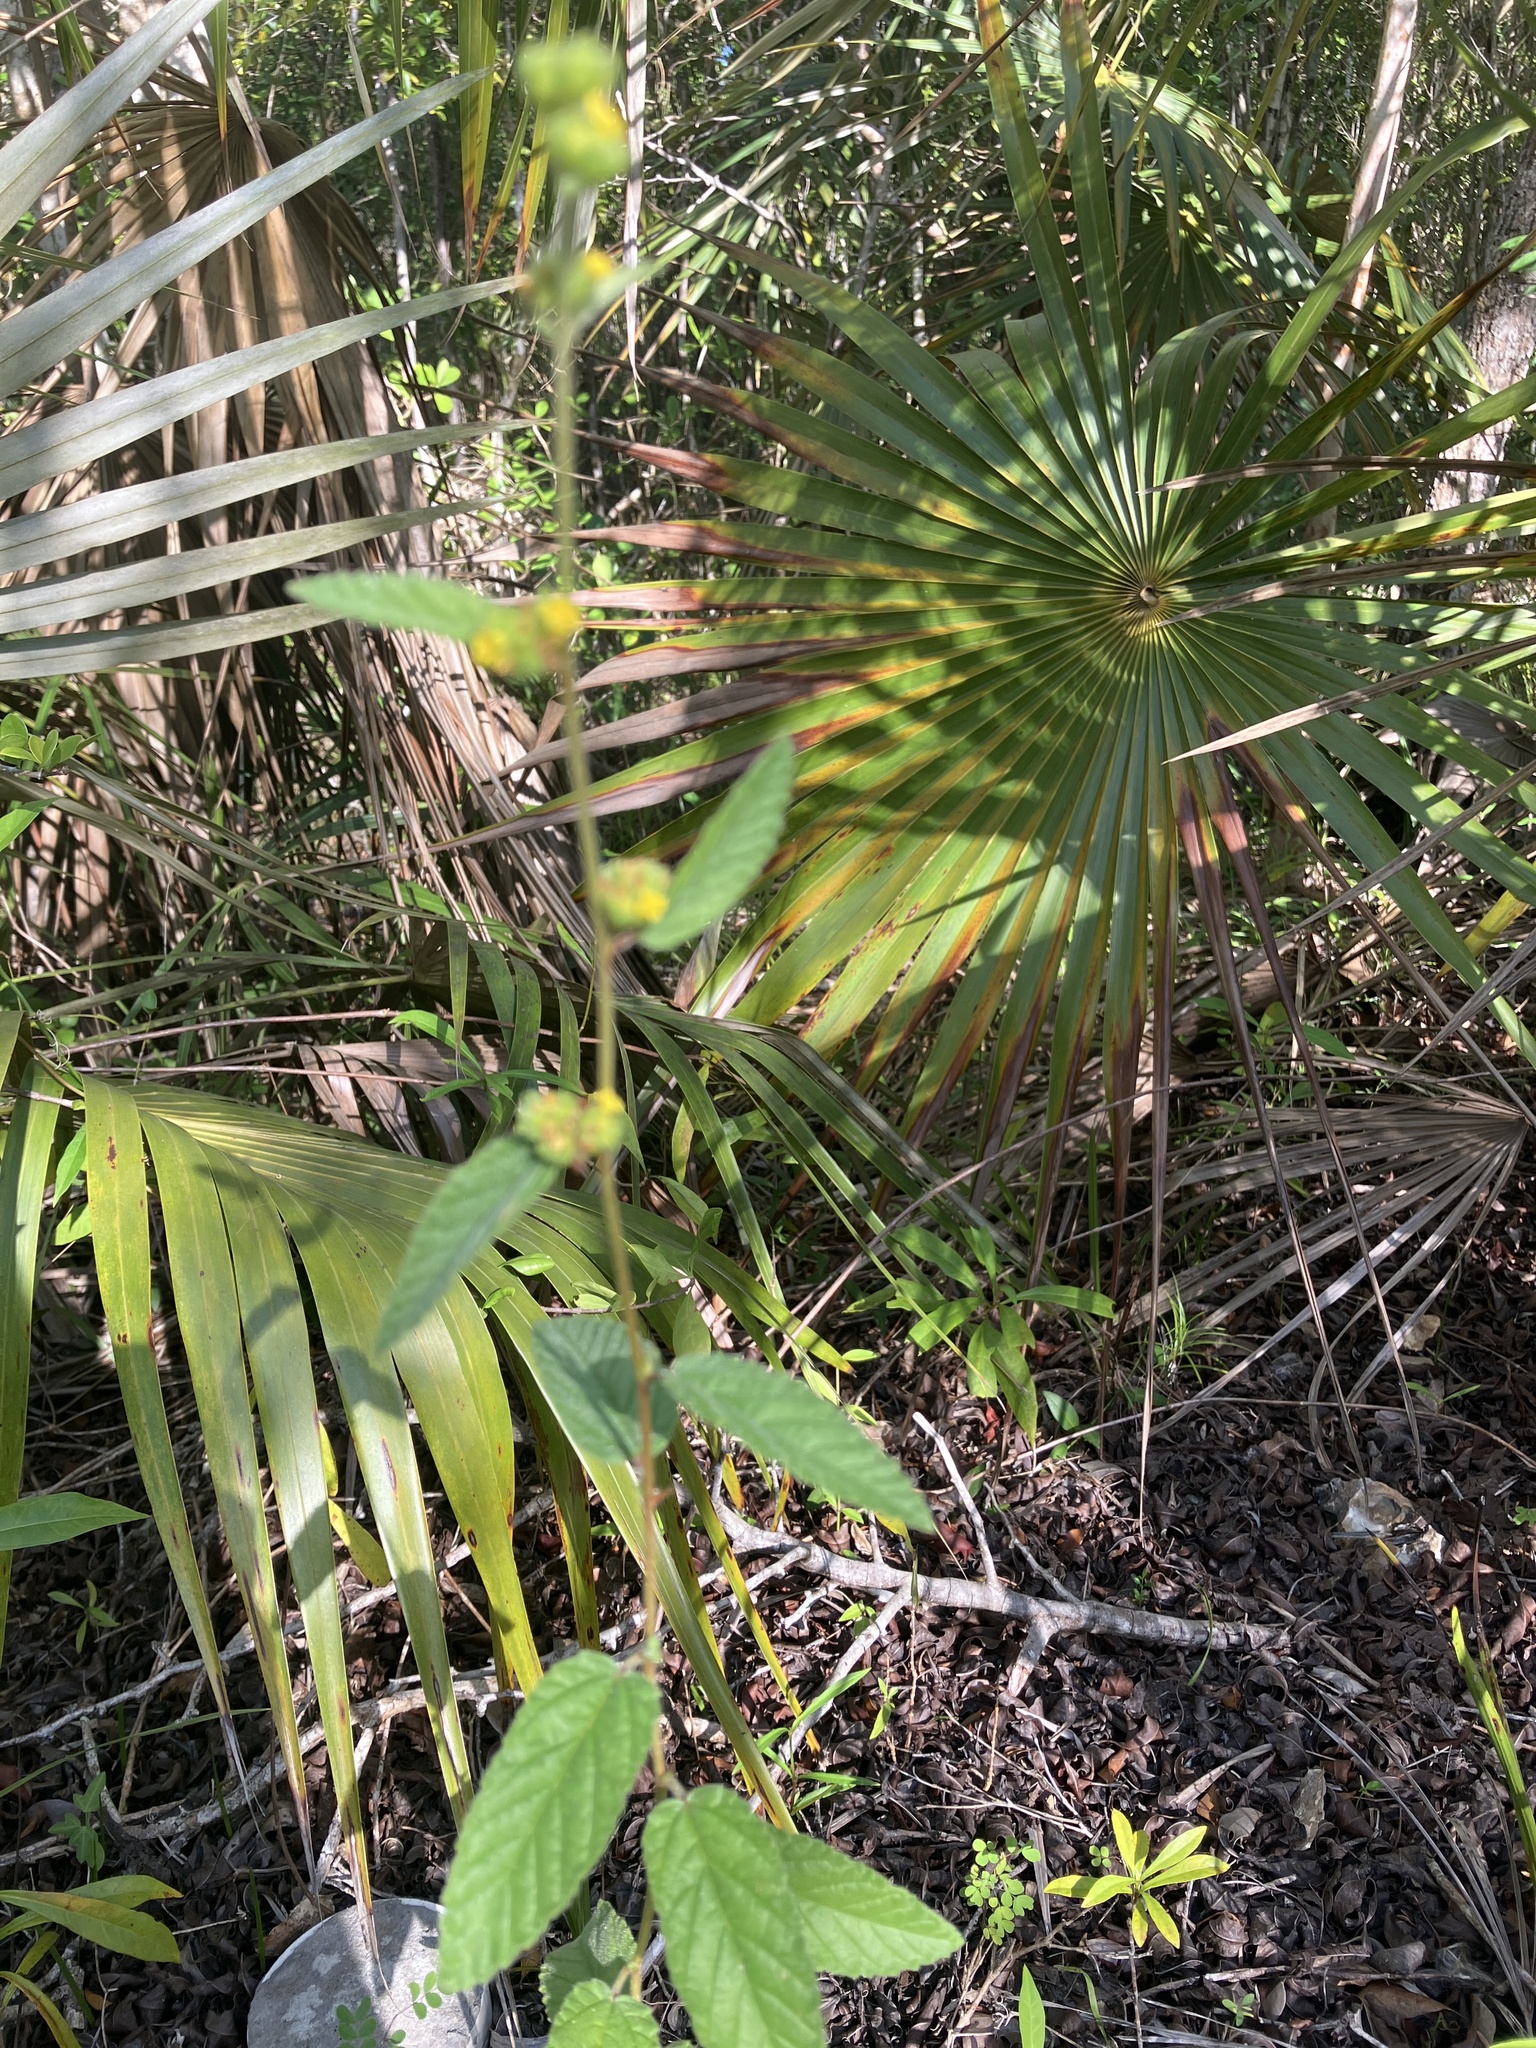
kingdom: Plantae
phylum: Tracheophyta
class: Magnoliopsida
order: Malvales
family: Malvaceae
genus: Waltheria
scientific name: Waltheria indica
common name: Leather-coat
